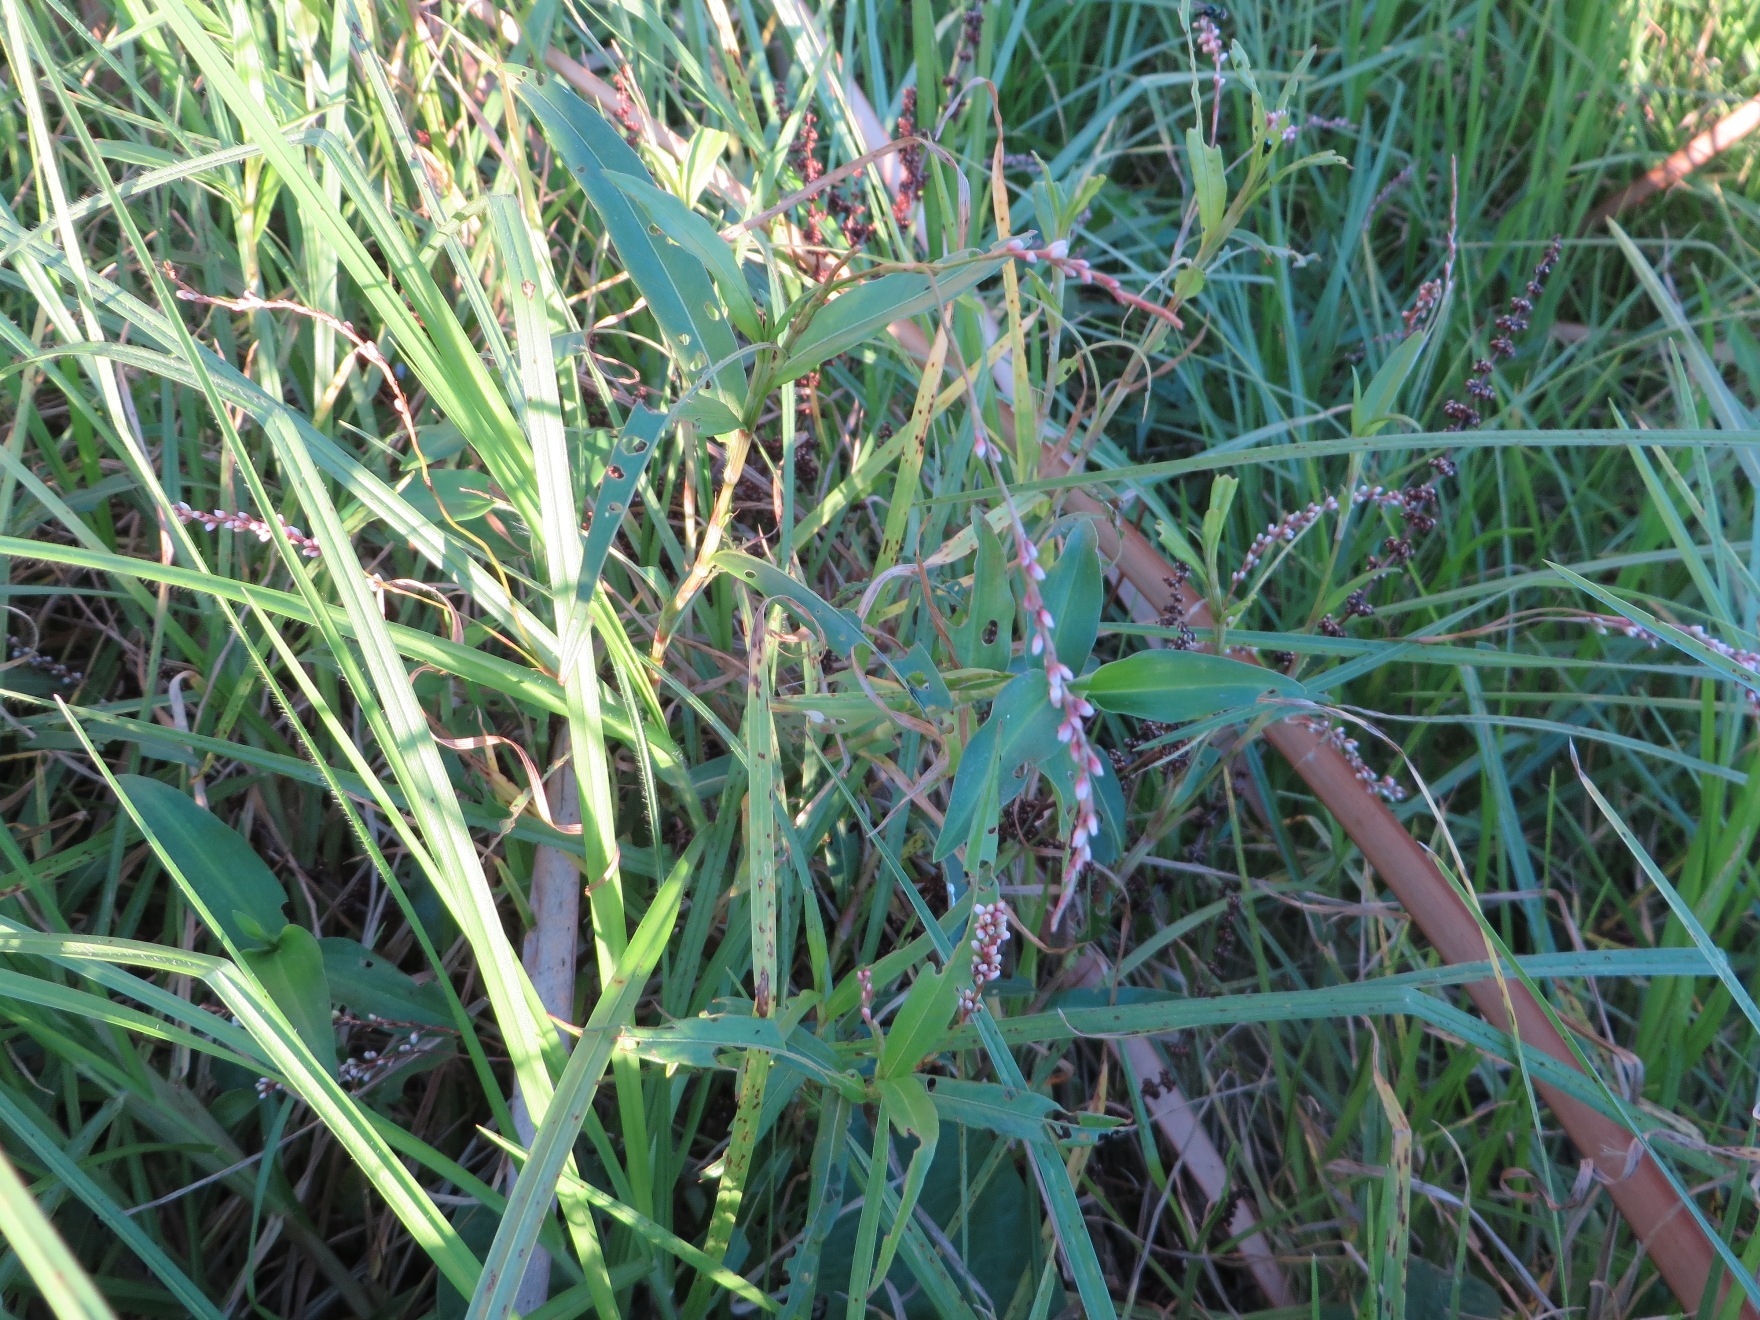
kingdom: Plantae
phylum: Tracheophyta
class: Magnoliopsida
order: Caryophyllales
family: Polygonaceae
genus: Persicaria
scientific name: Persicaria decipiens
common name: Willow-weed
